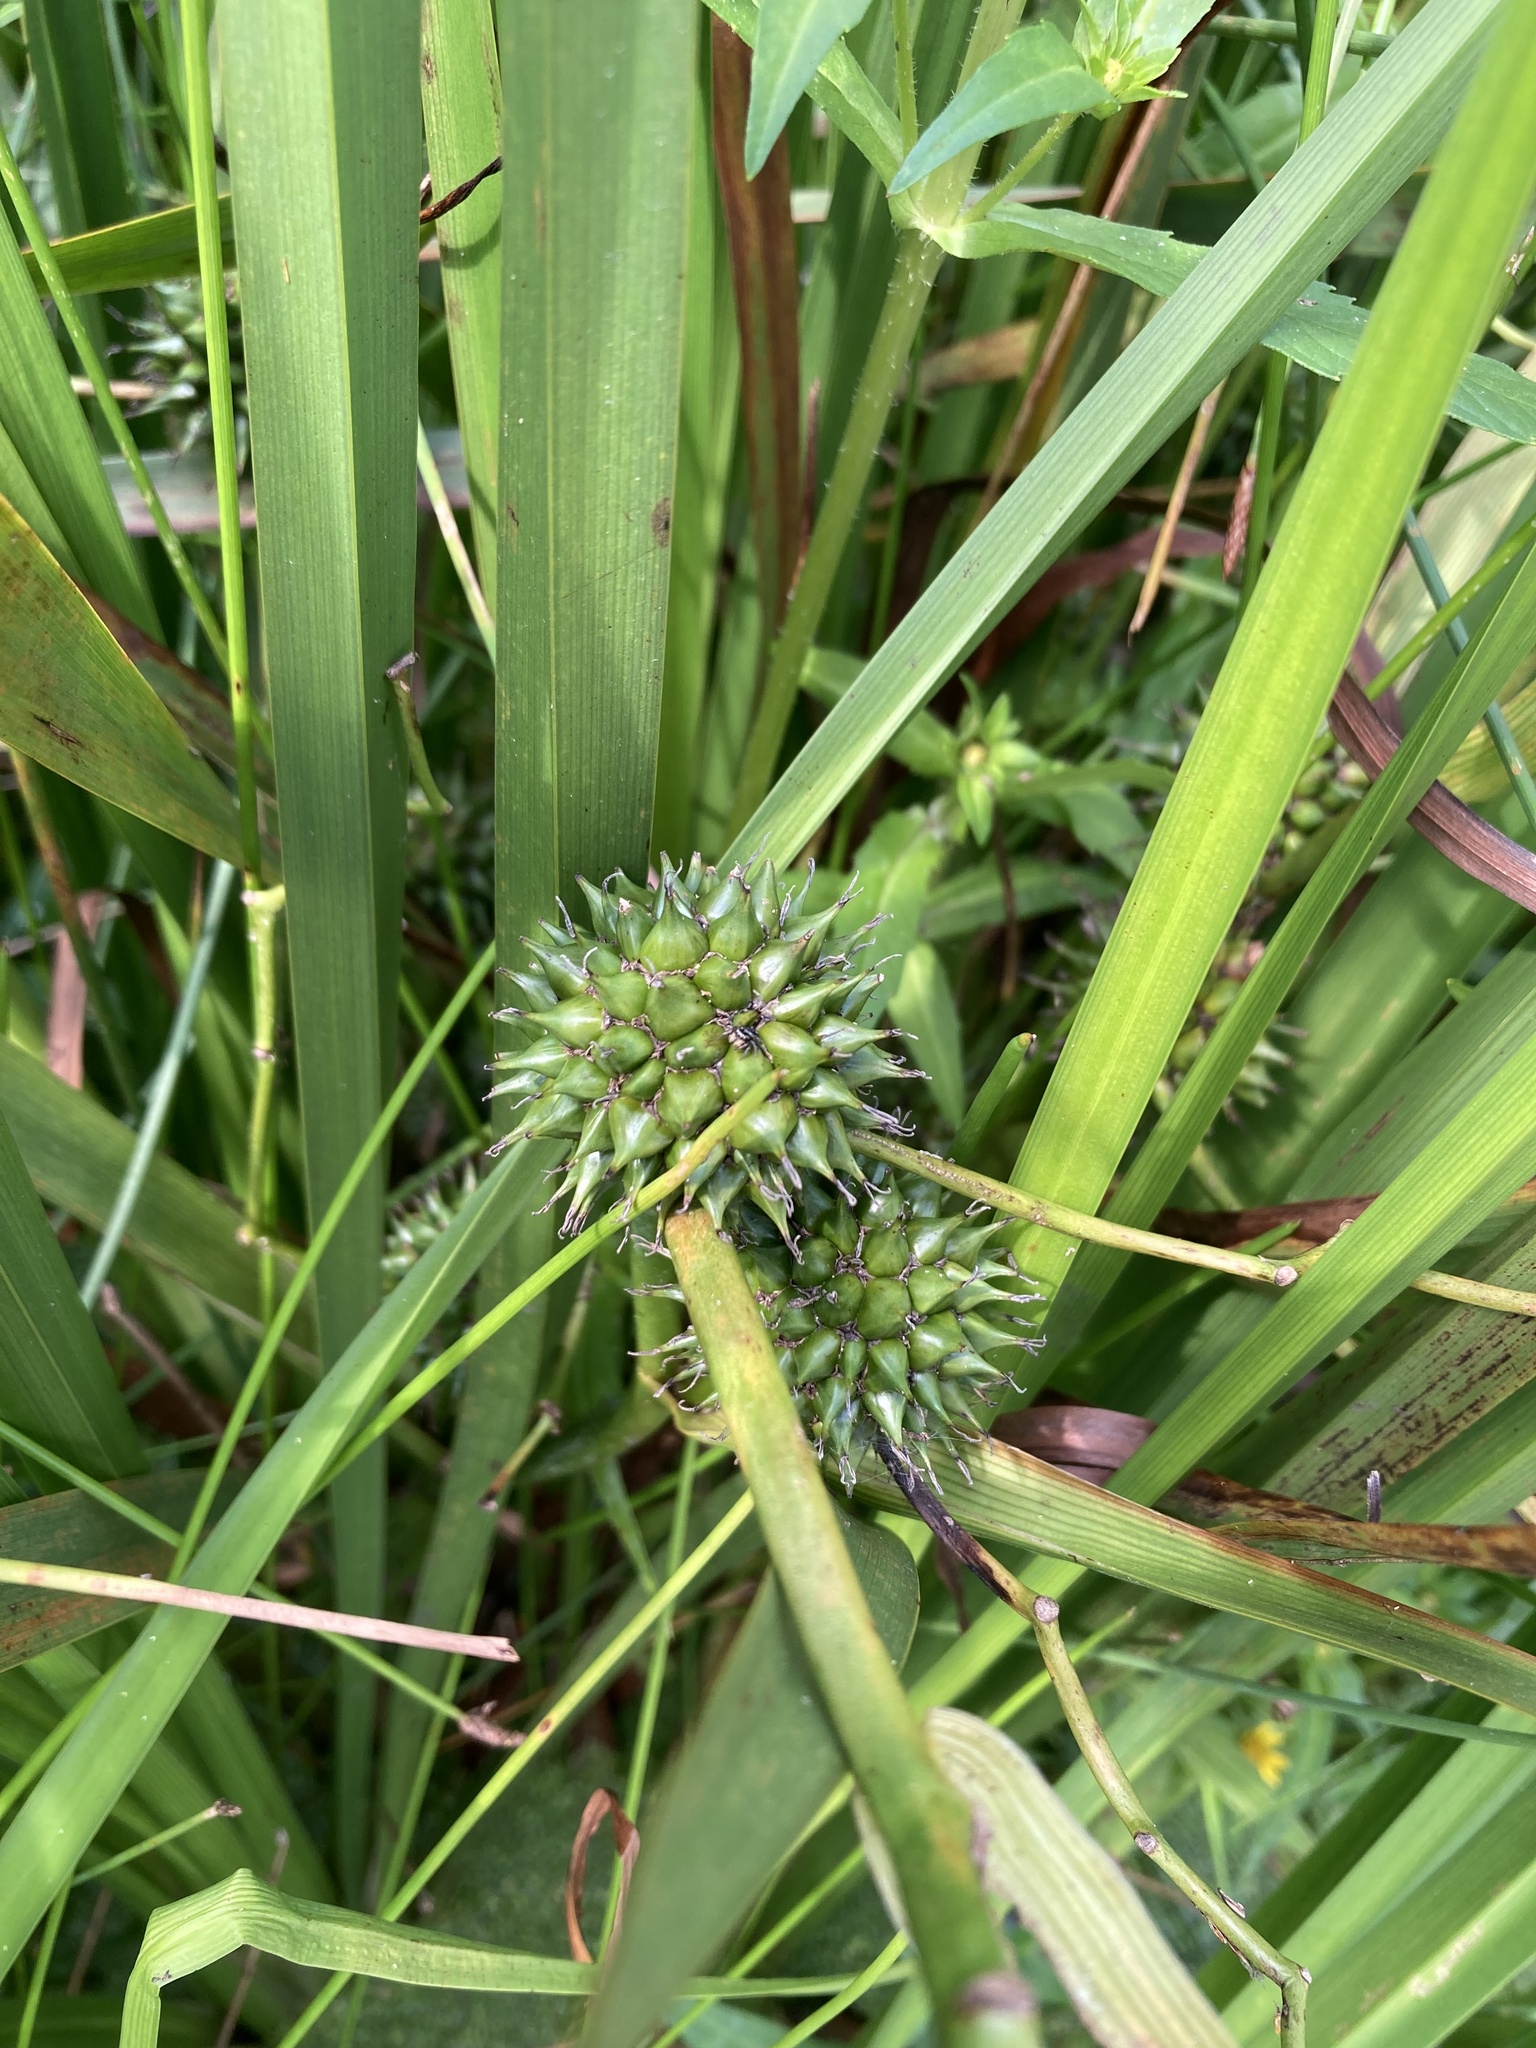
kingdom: Plantae
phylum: Tracheophyta
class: Liliopsida
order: Poales
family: Typhaceae
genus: Sparganium
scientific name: Sparganium eurycarpum
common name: Broad-fruited burreed
